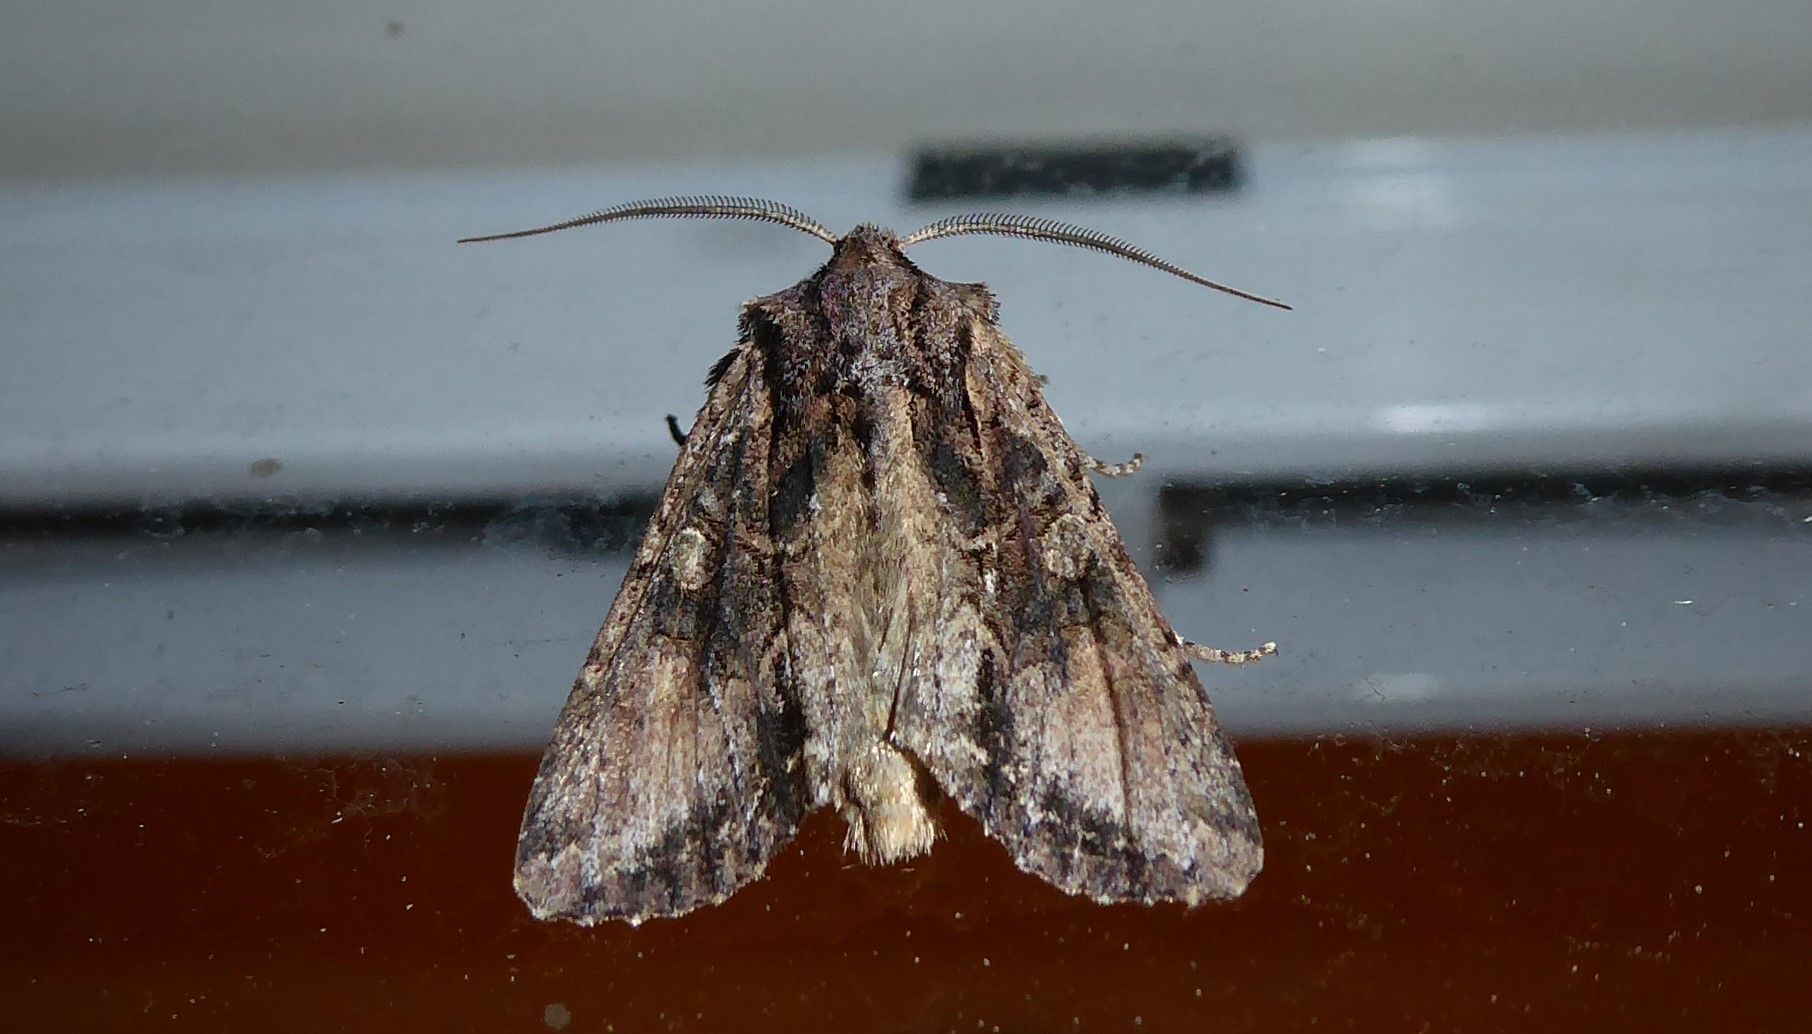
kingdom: Animalia
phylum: Arthropoda
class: Insecta
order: Lepidoptera
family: Noctuidae
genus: Ichneutica
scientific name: Ichneutica mutans
